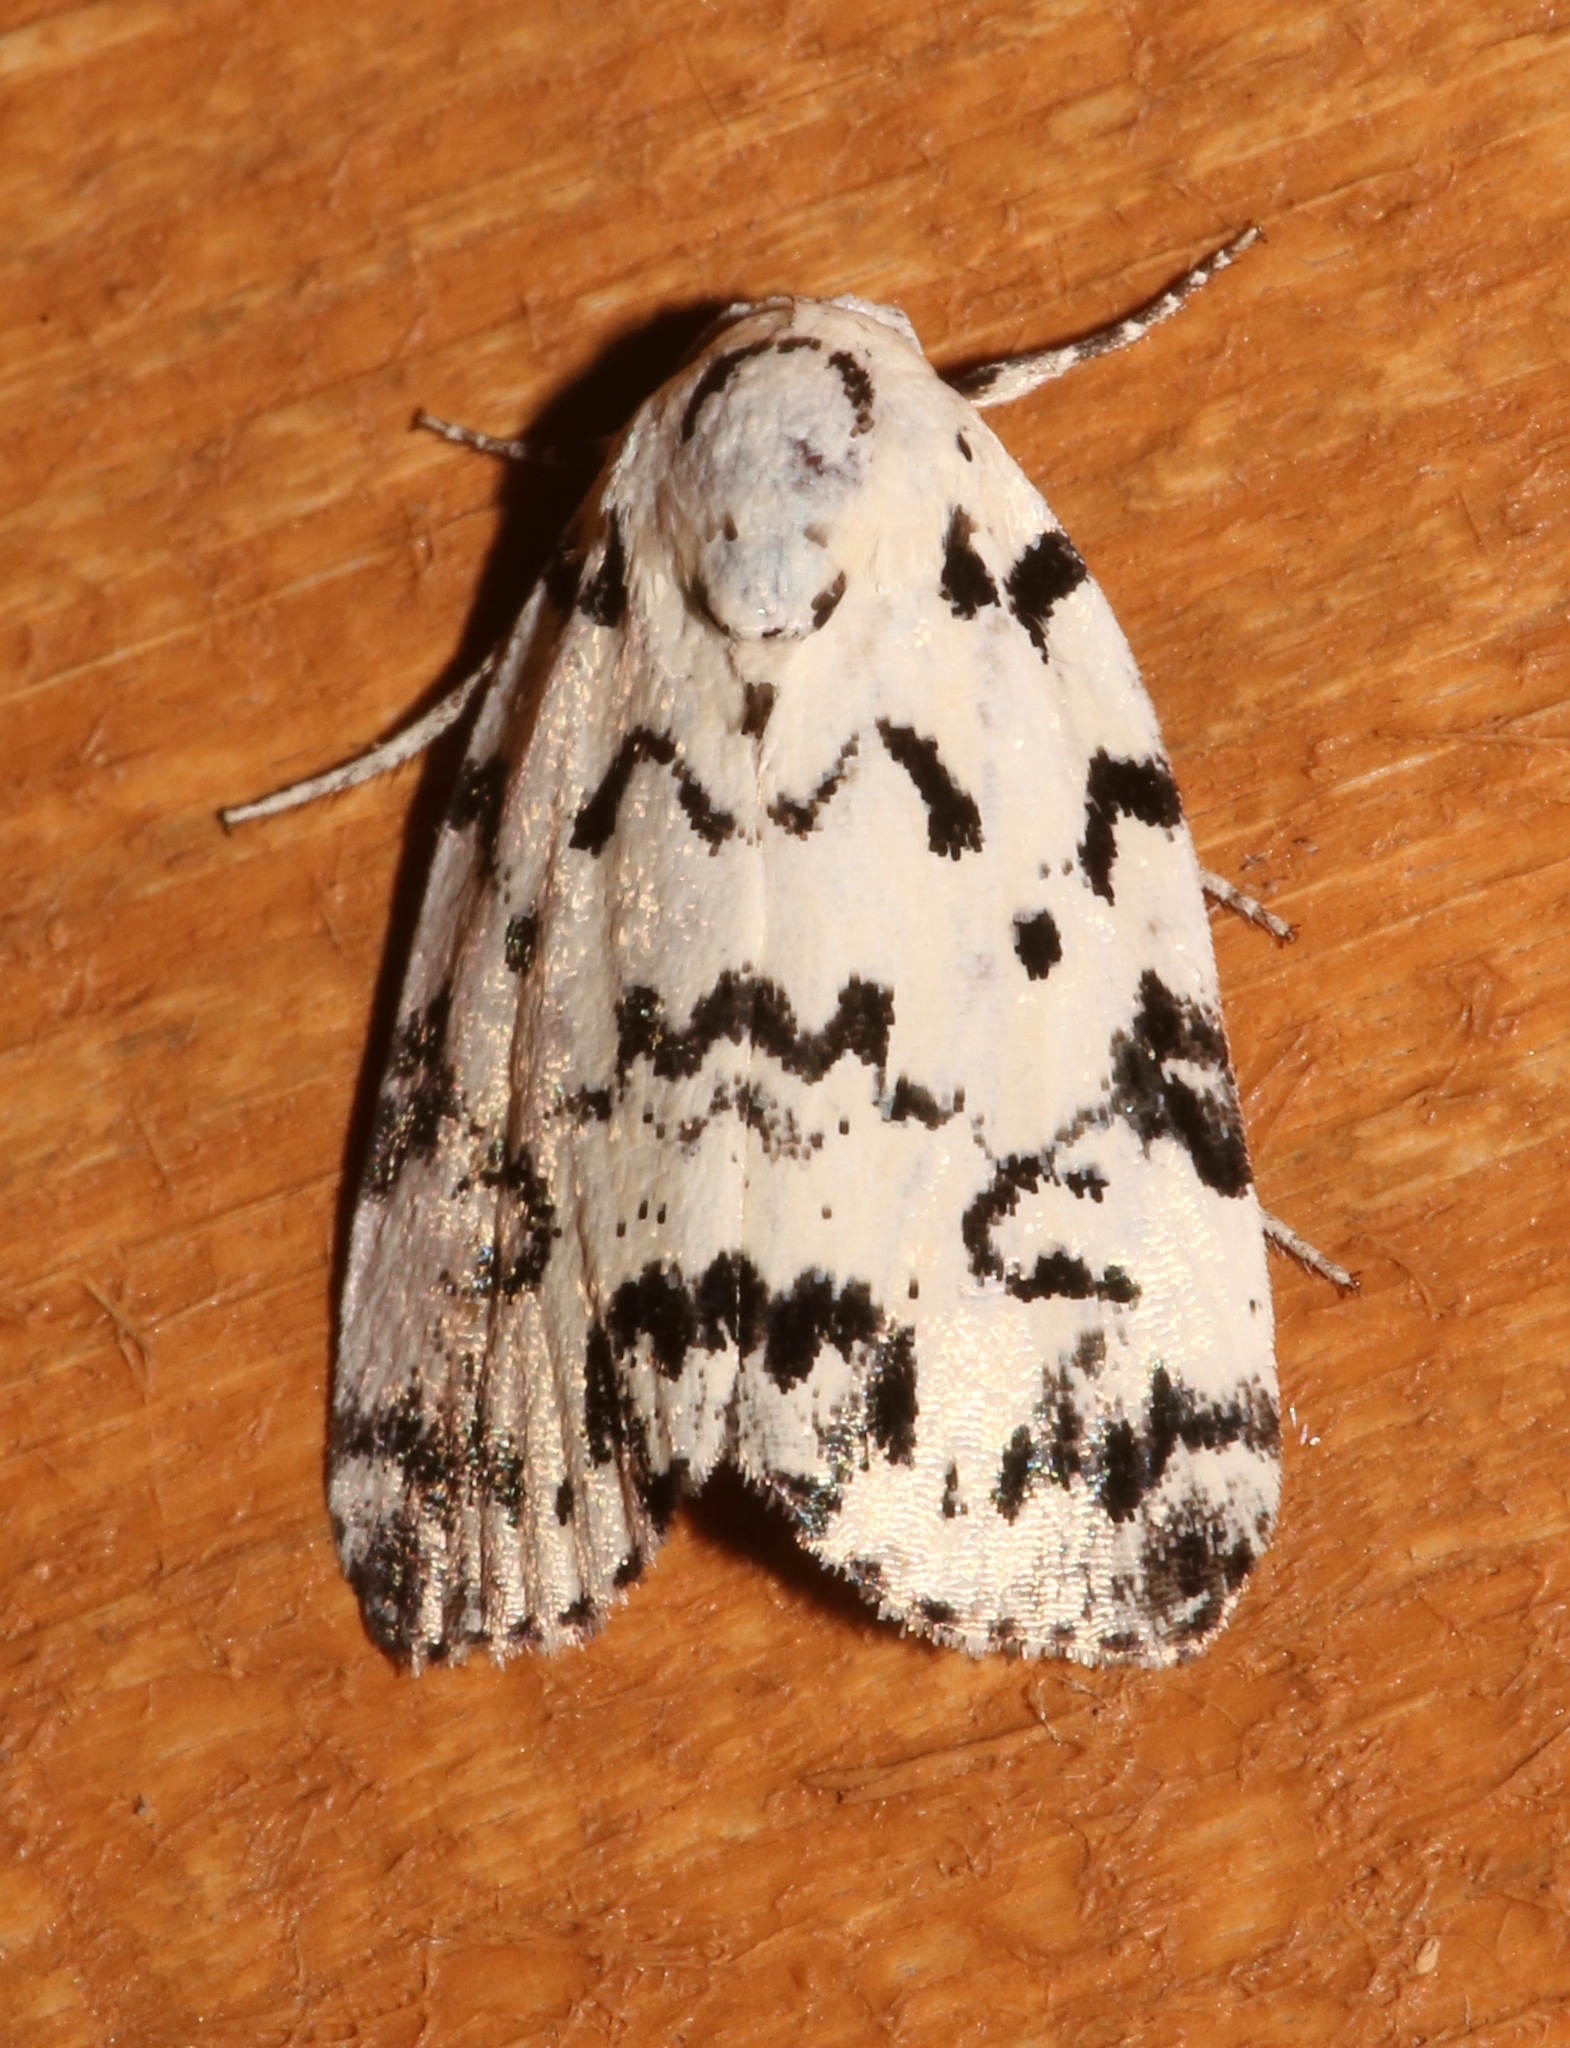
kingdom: Animalia
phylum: Arthropoda
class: Insecta
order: Lepidoptera
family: Noctuidae
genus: Polygrammate
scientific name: Polygrammate hebraeicum
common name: Hebrew moth
